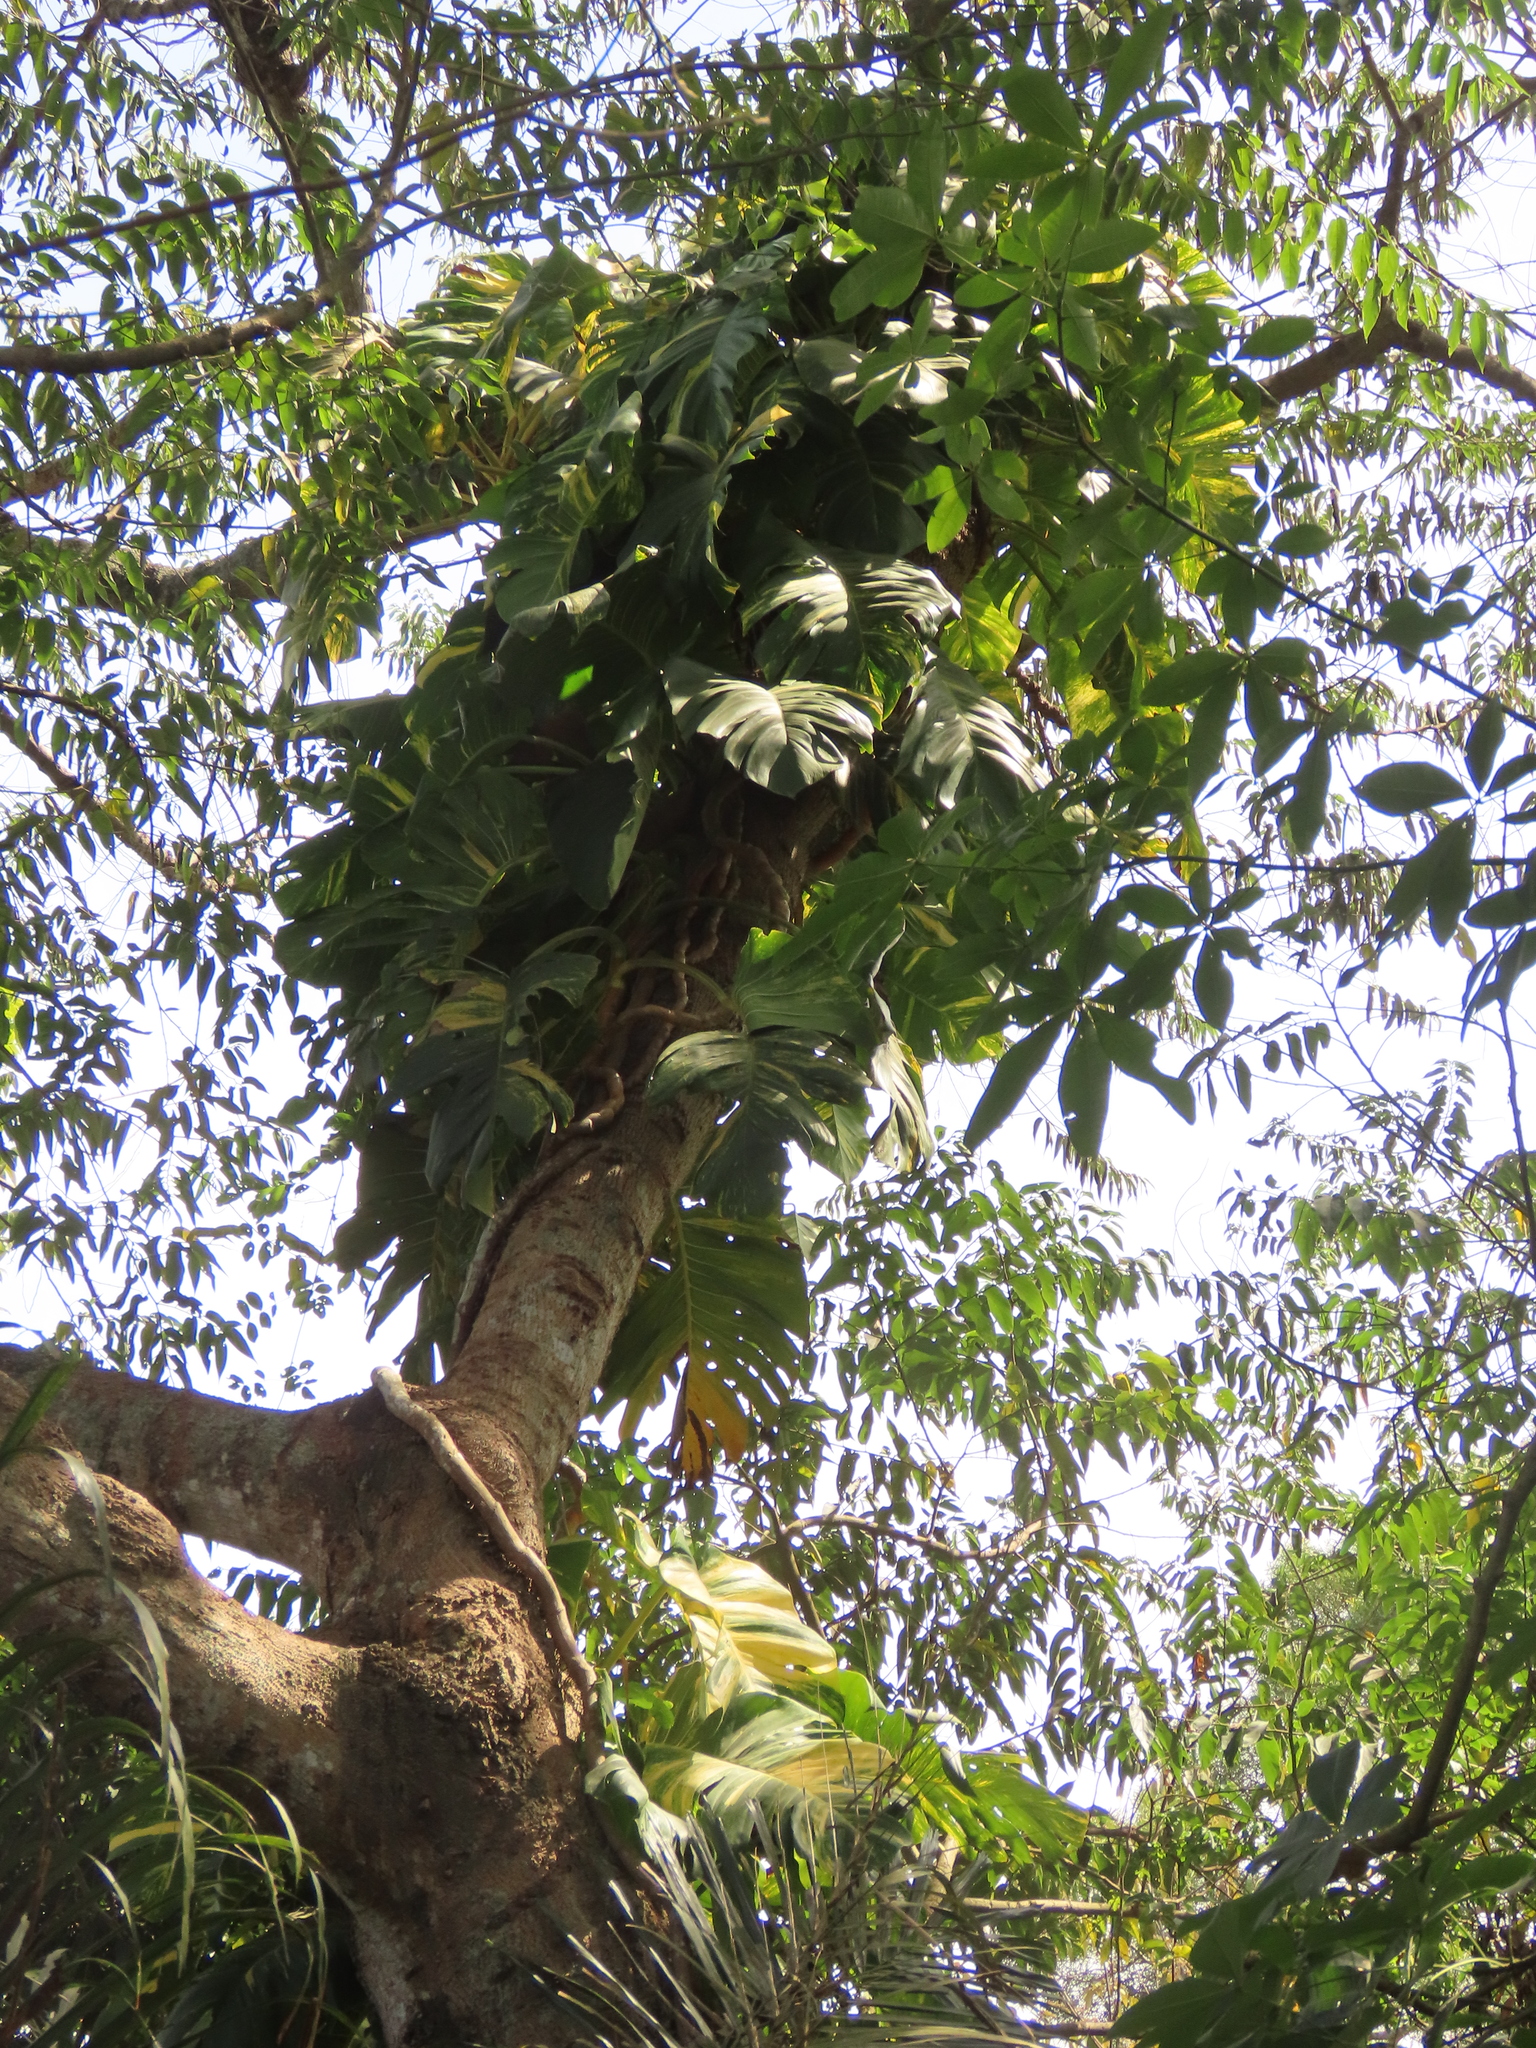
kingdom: Plantae
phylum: Tracheophyta
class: Liliopsida
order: Alismatales
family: Araceae
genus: Epipremnum
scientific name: Epipremnum aureum
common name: Golden hunter's-robe
